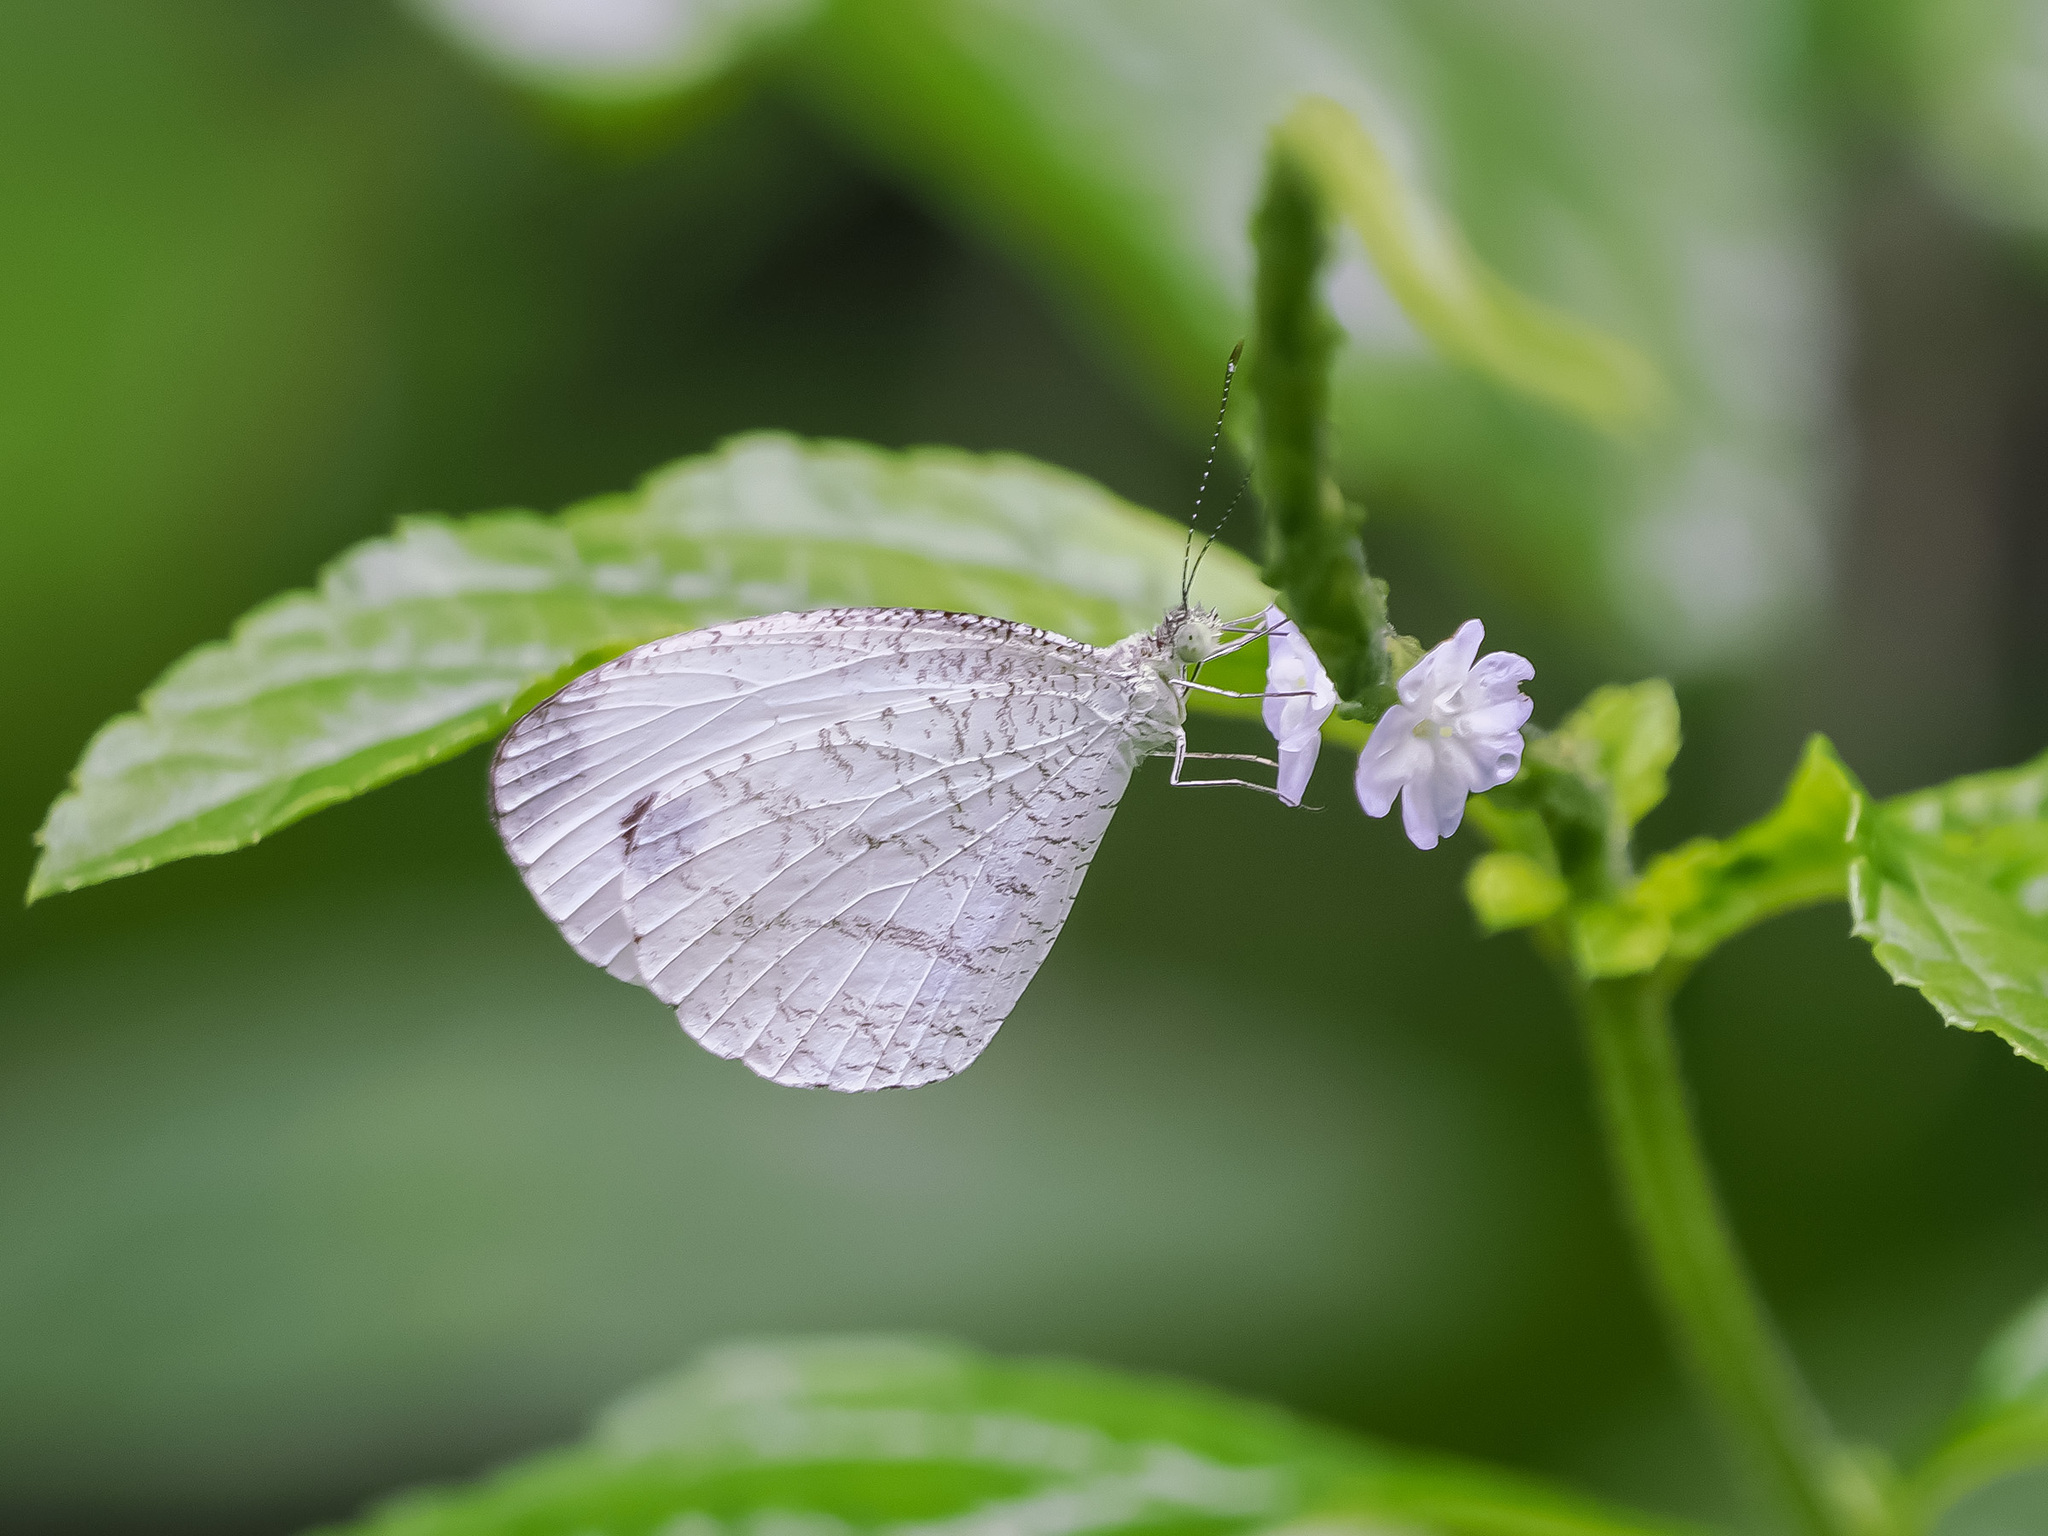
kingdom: Animalia
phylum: Arthropoda
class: Insecta
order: Lepidoptera
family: Pieridae
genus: Leptosia
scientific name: Leptosia nina
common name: Psyche
